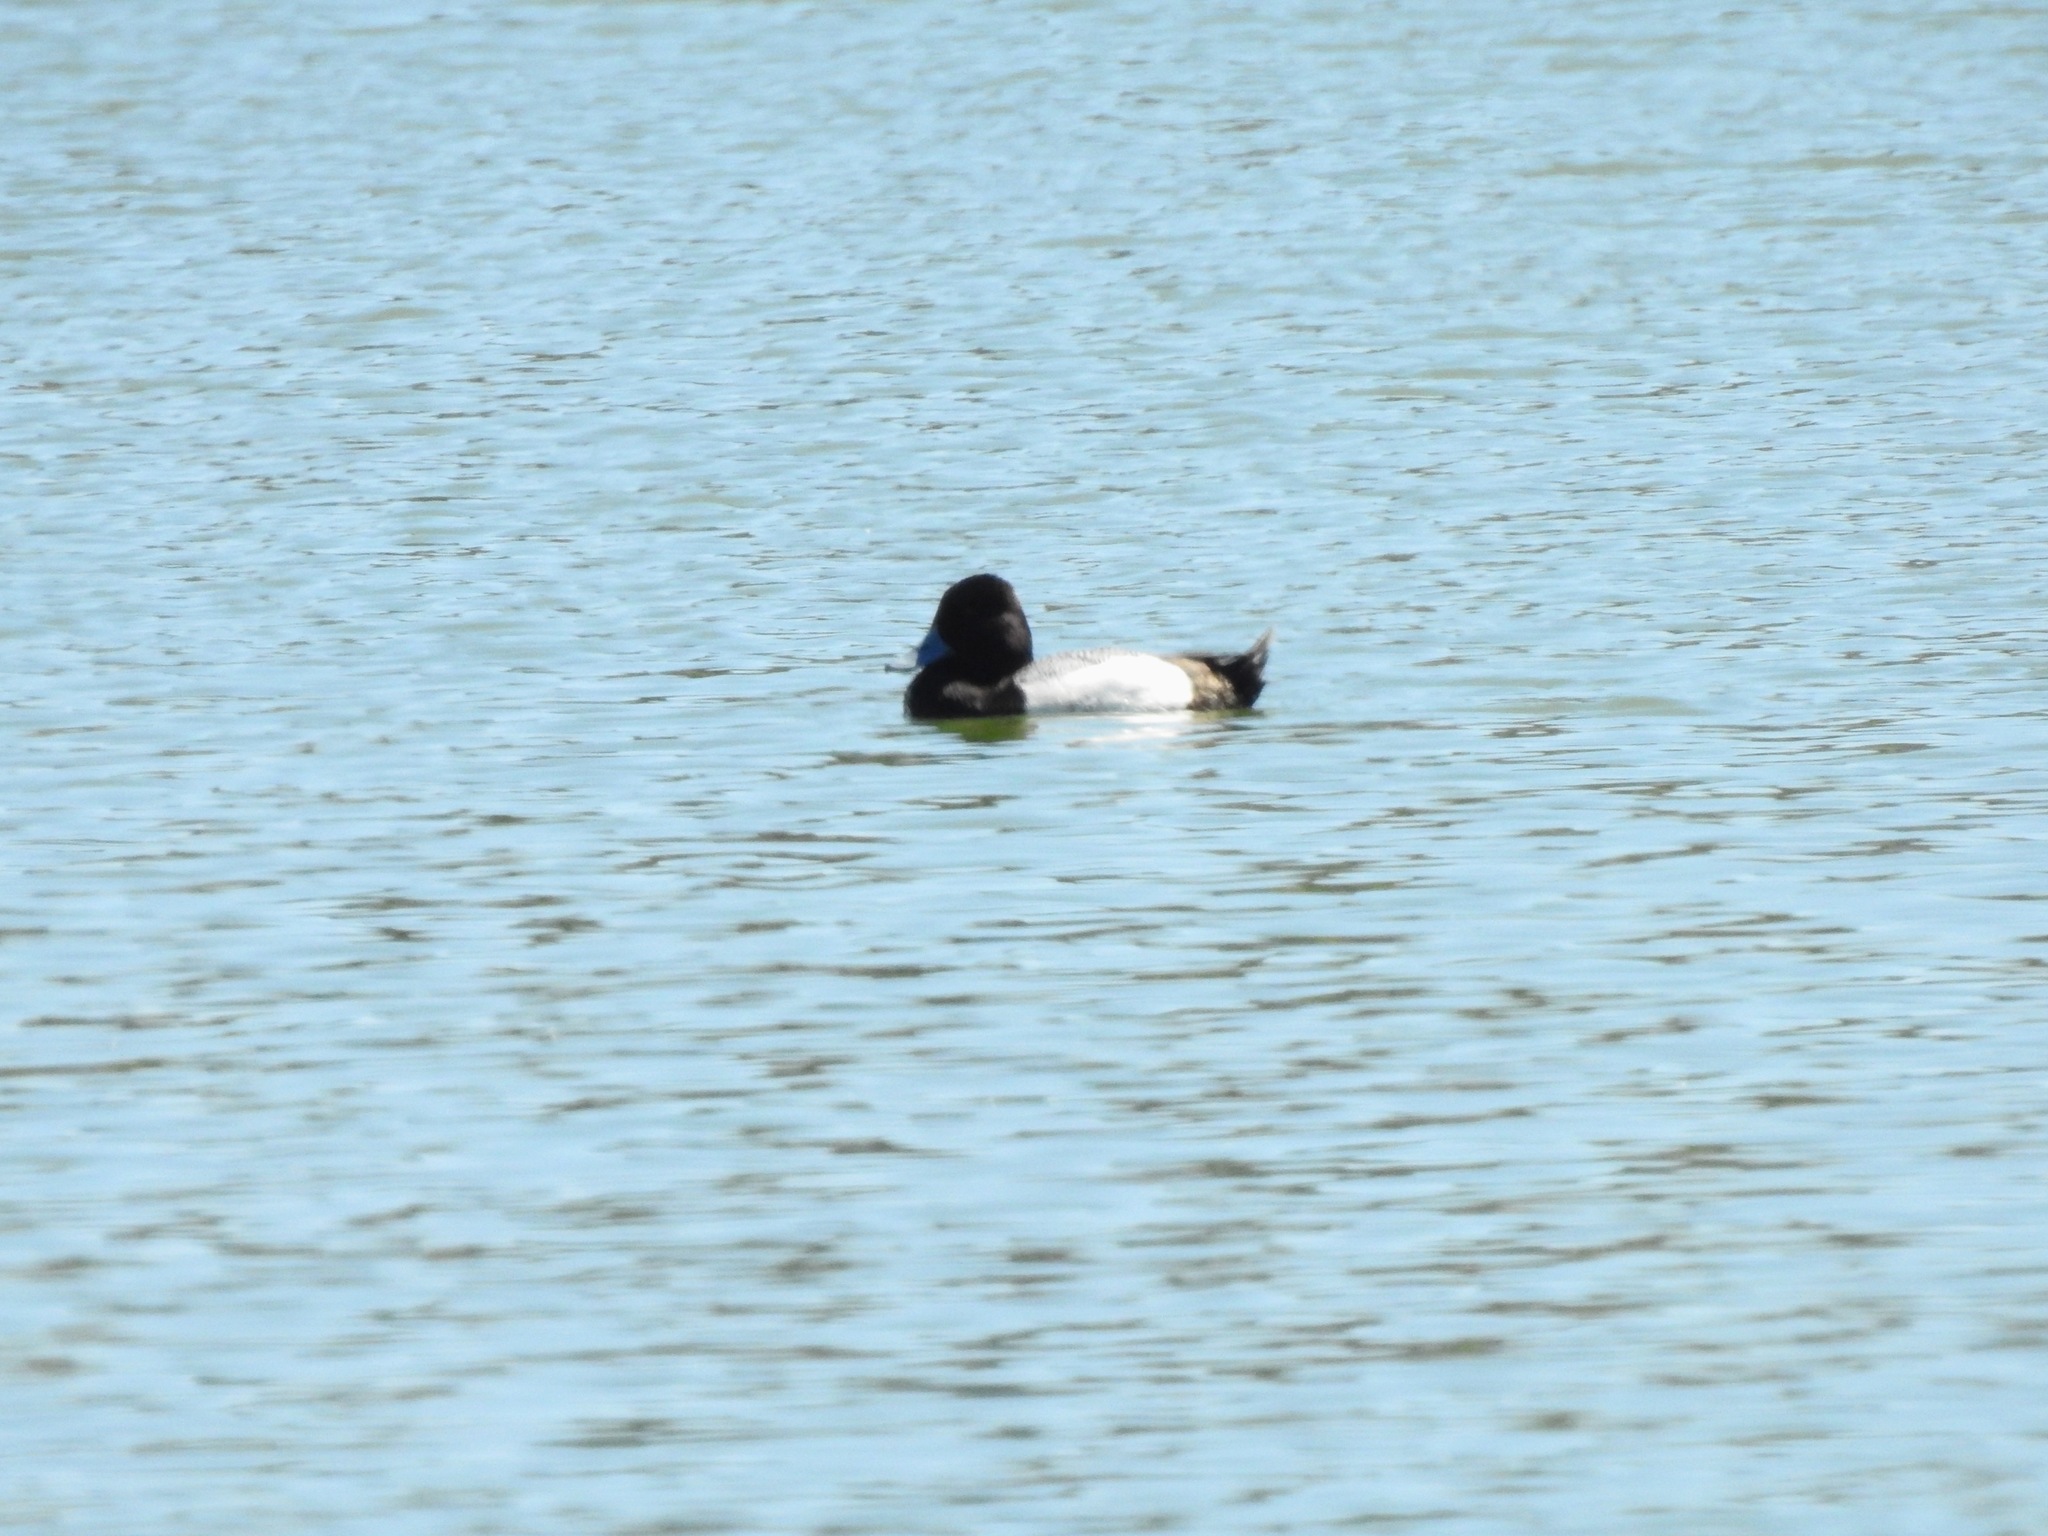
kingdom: Animalia
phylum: Chordata
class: Aves
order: Anseriformes
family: Anatidae
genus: Aythya
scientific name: Aythya affinis
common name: Lesser scaup
